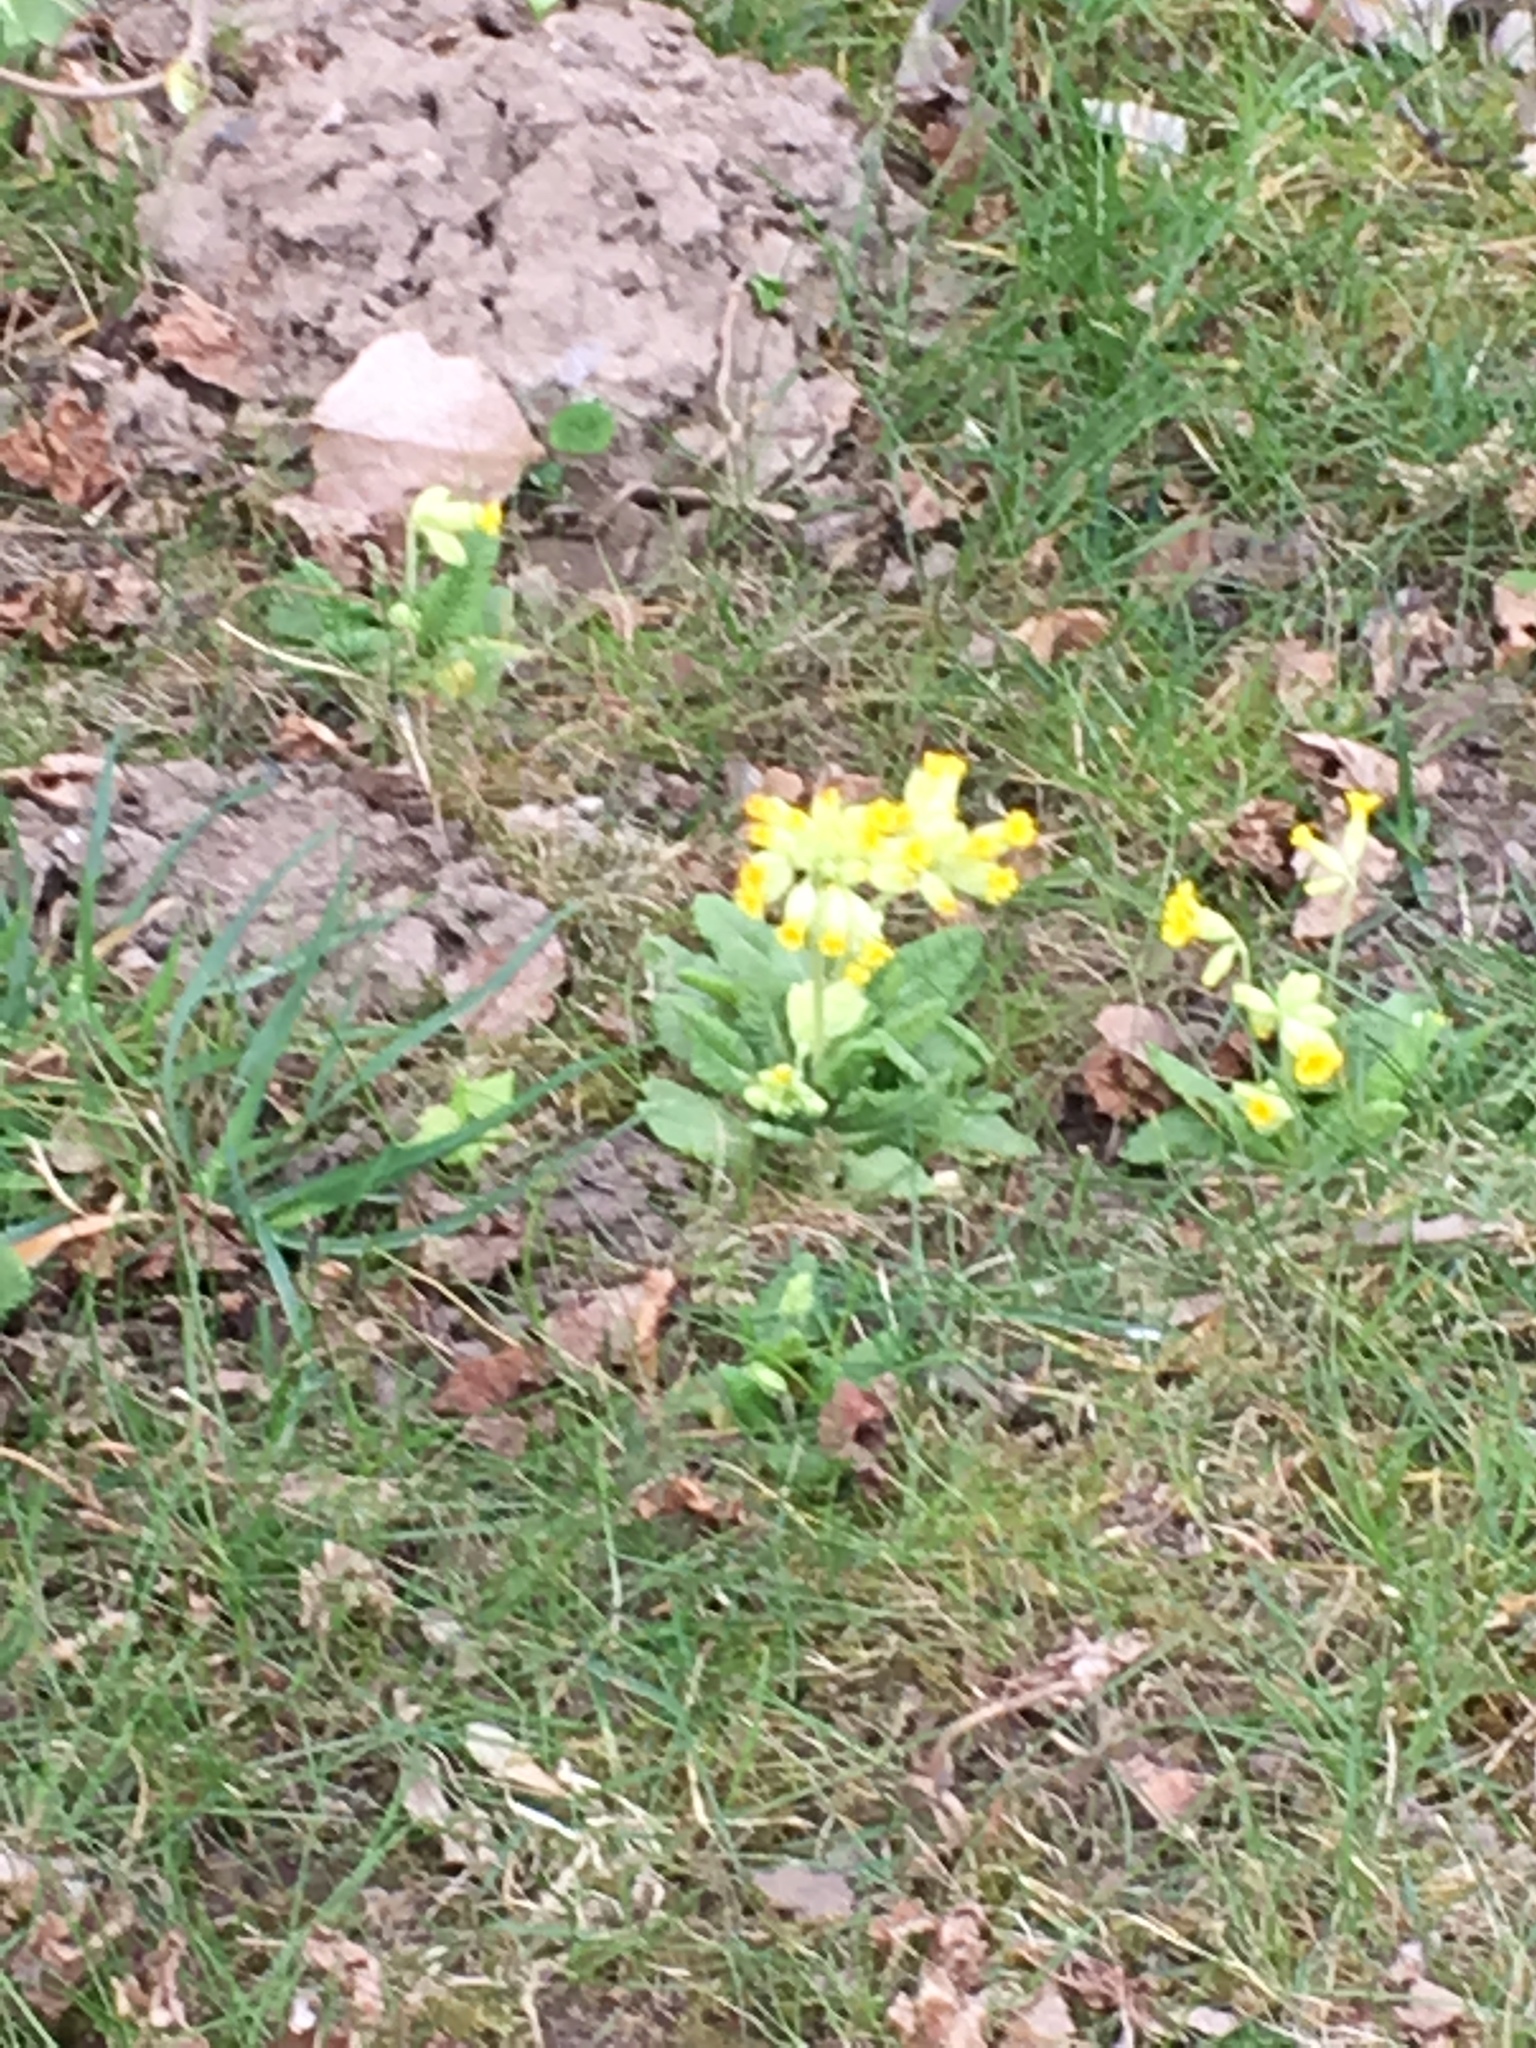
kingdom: Plantae
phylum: Tracheophyta
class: Magnoliopsida
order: Ericales
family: Primulaceae
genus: Primula
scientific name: Primula veris
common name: Cowslip
